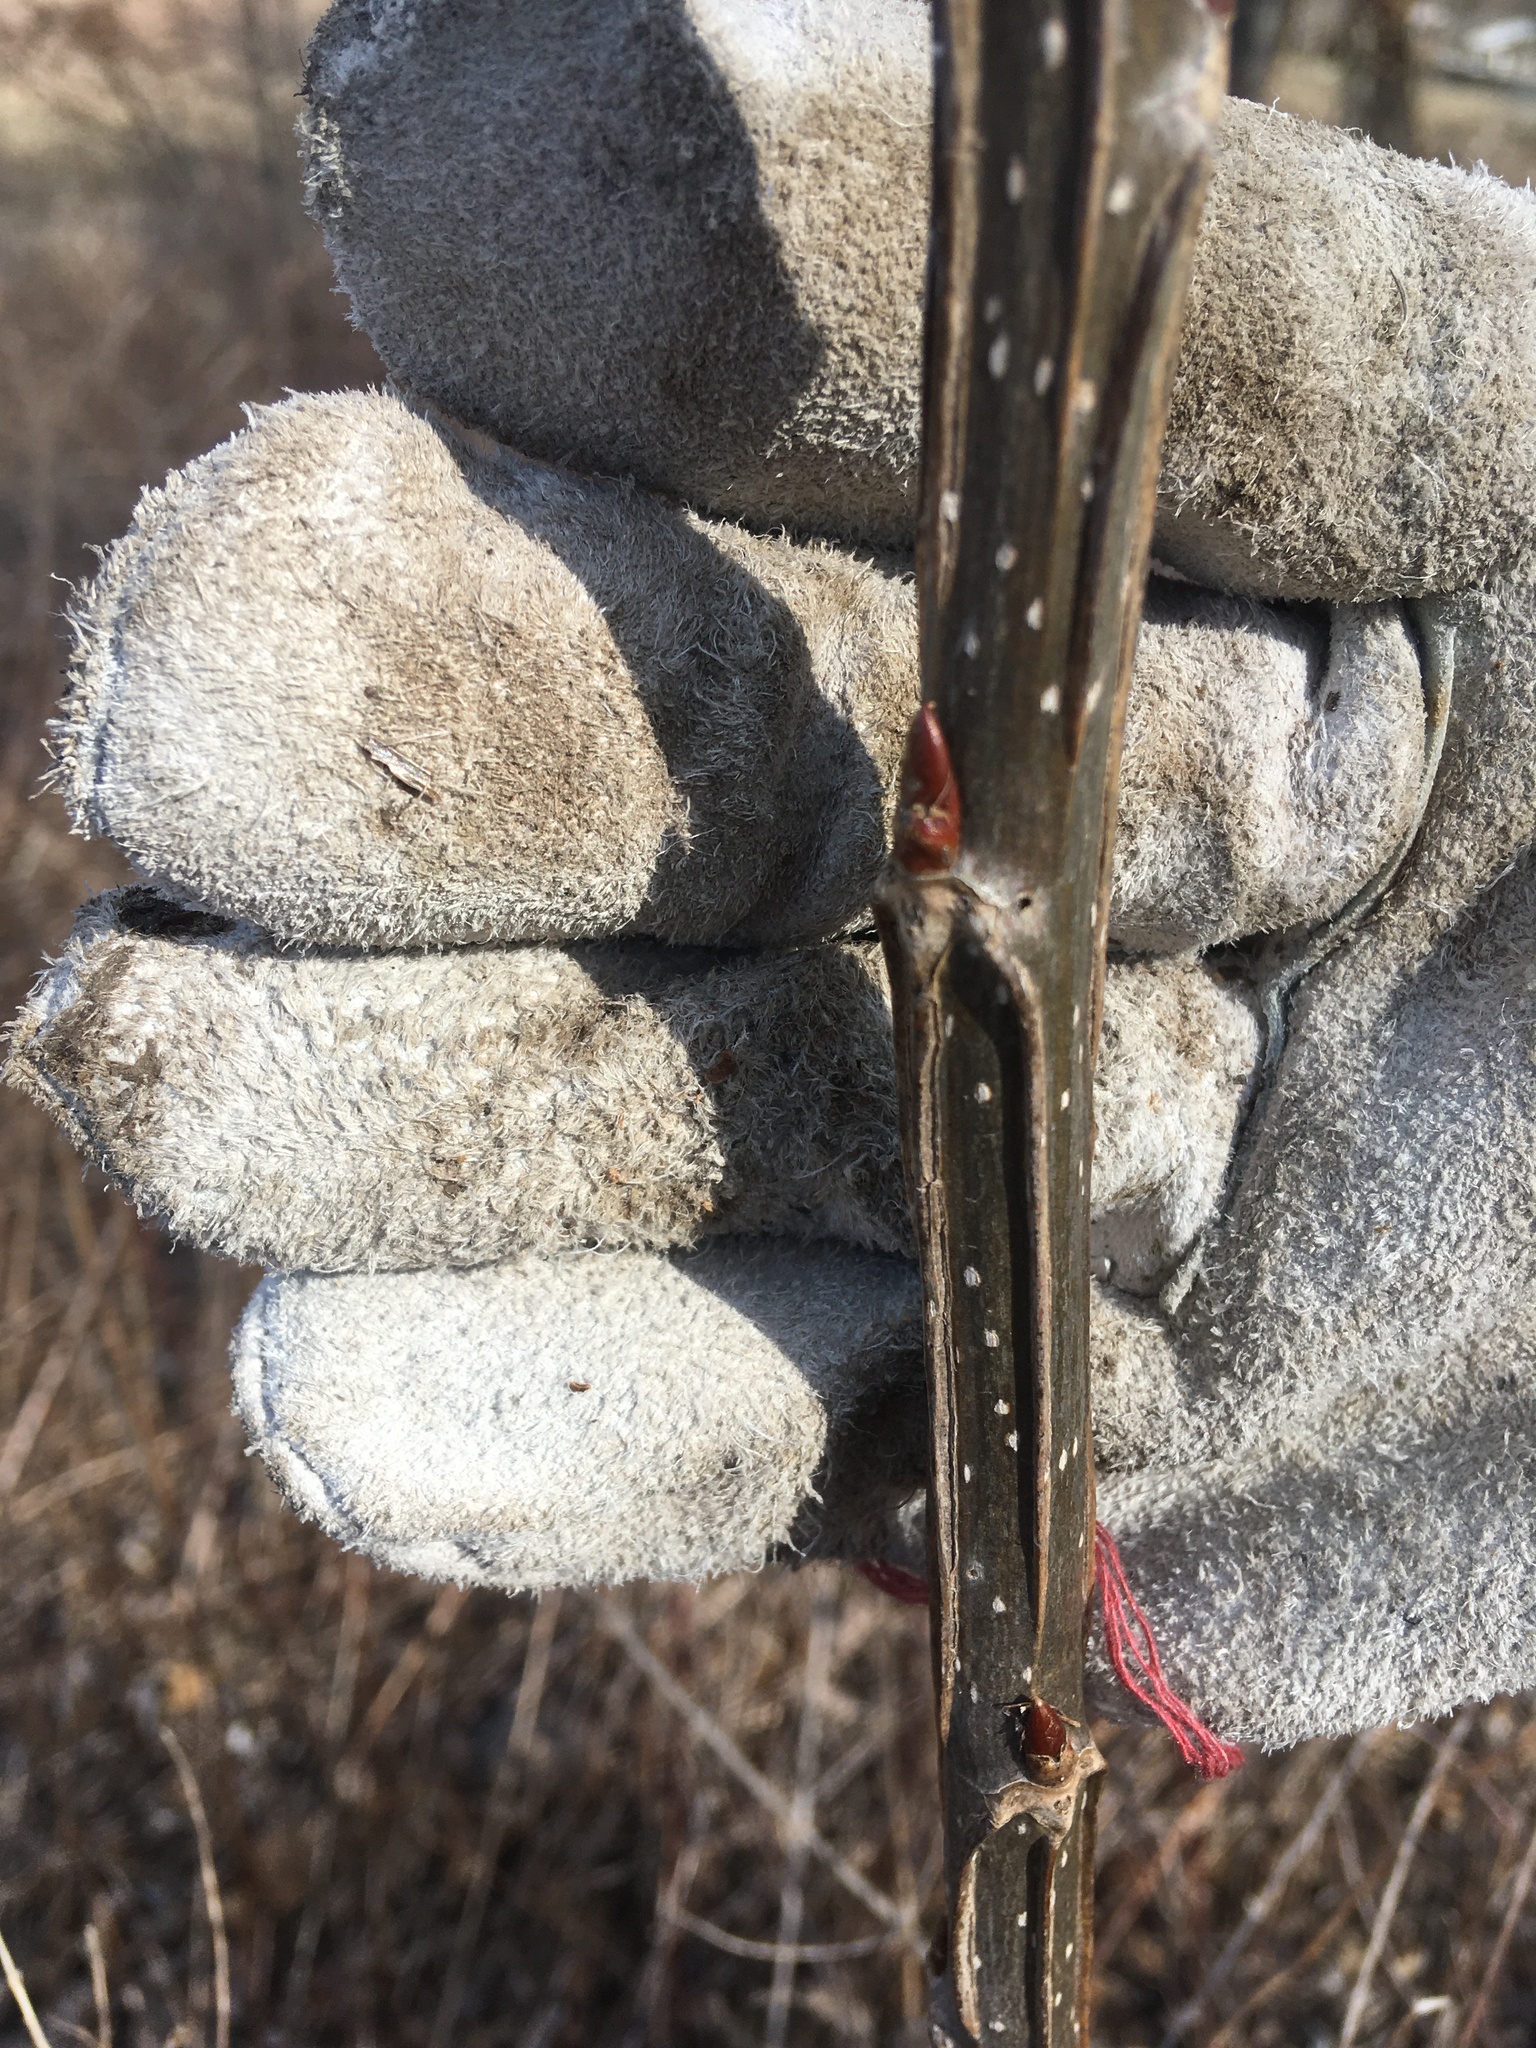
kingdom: Plantae
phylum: Tracheophyta
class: Magnoliopsida
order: Malpighiales
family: Salicaceae
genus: Populus
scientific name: Populus deltoides
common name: Eastern cottonwood
